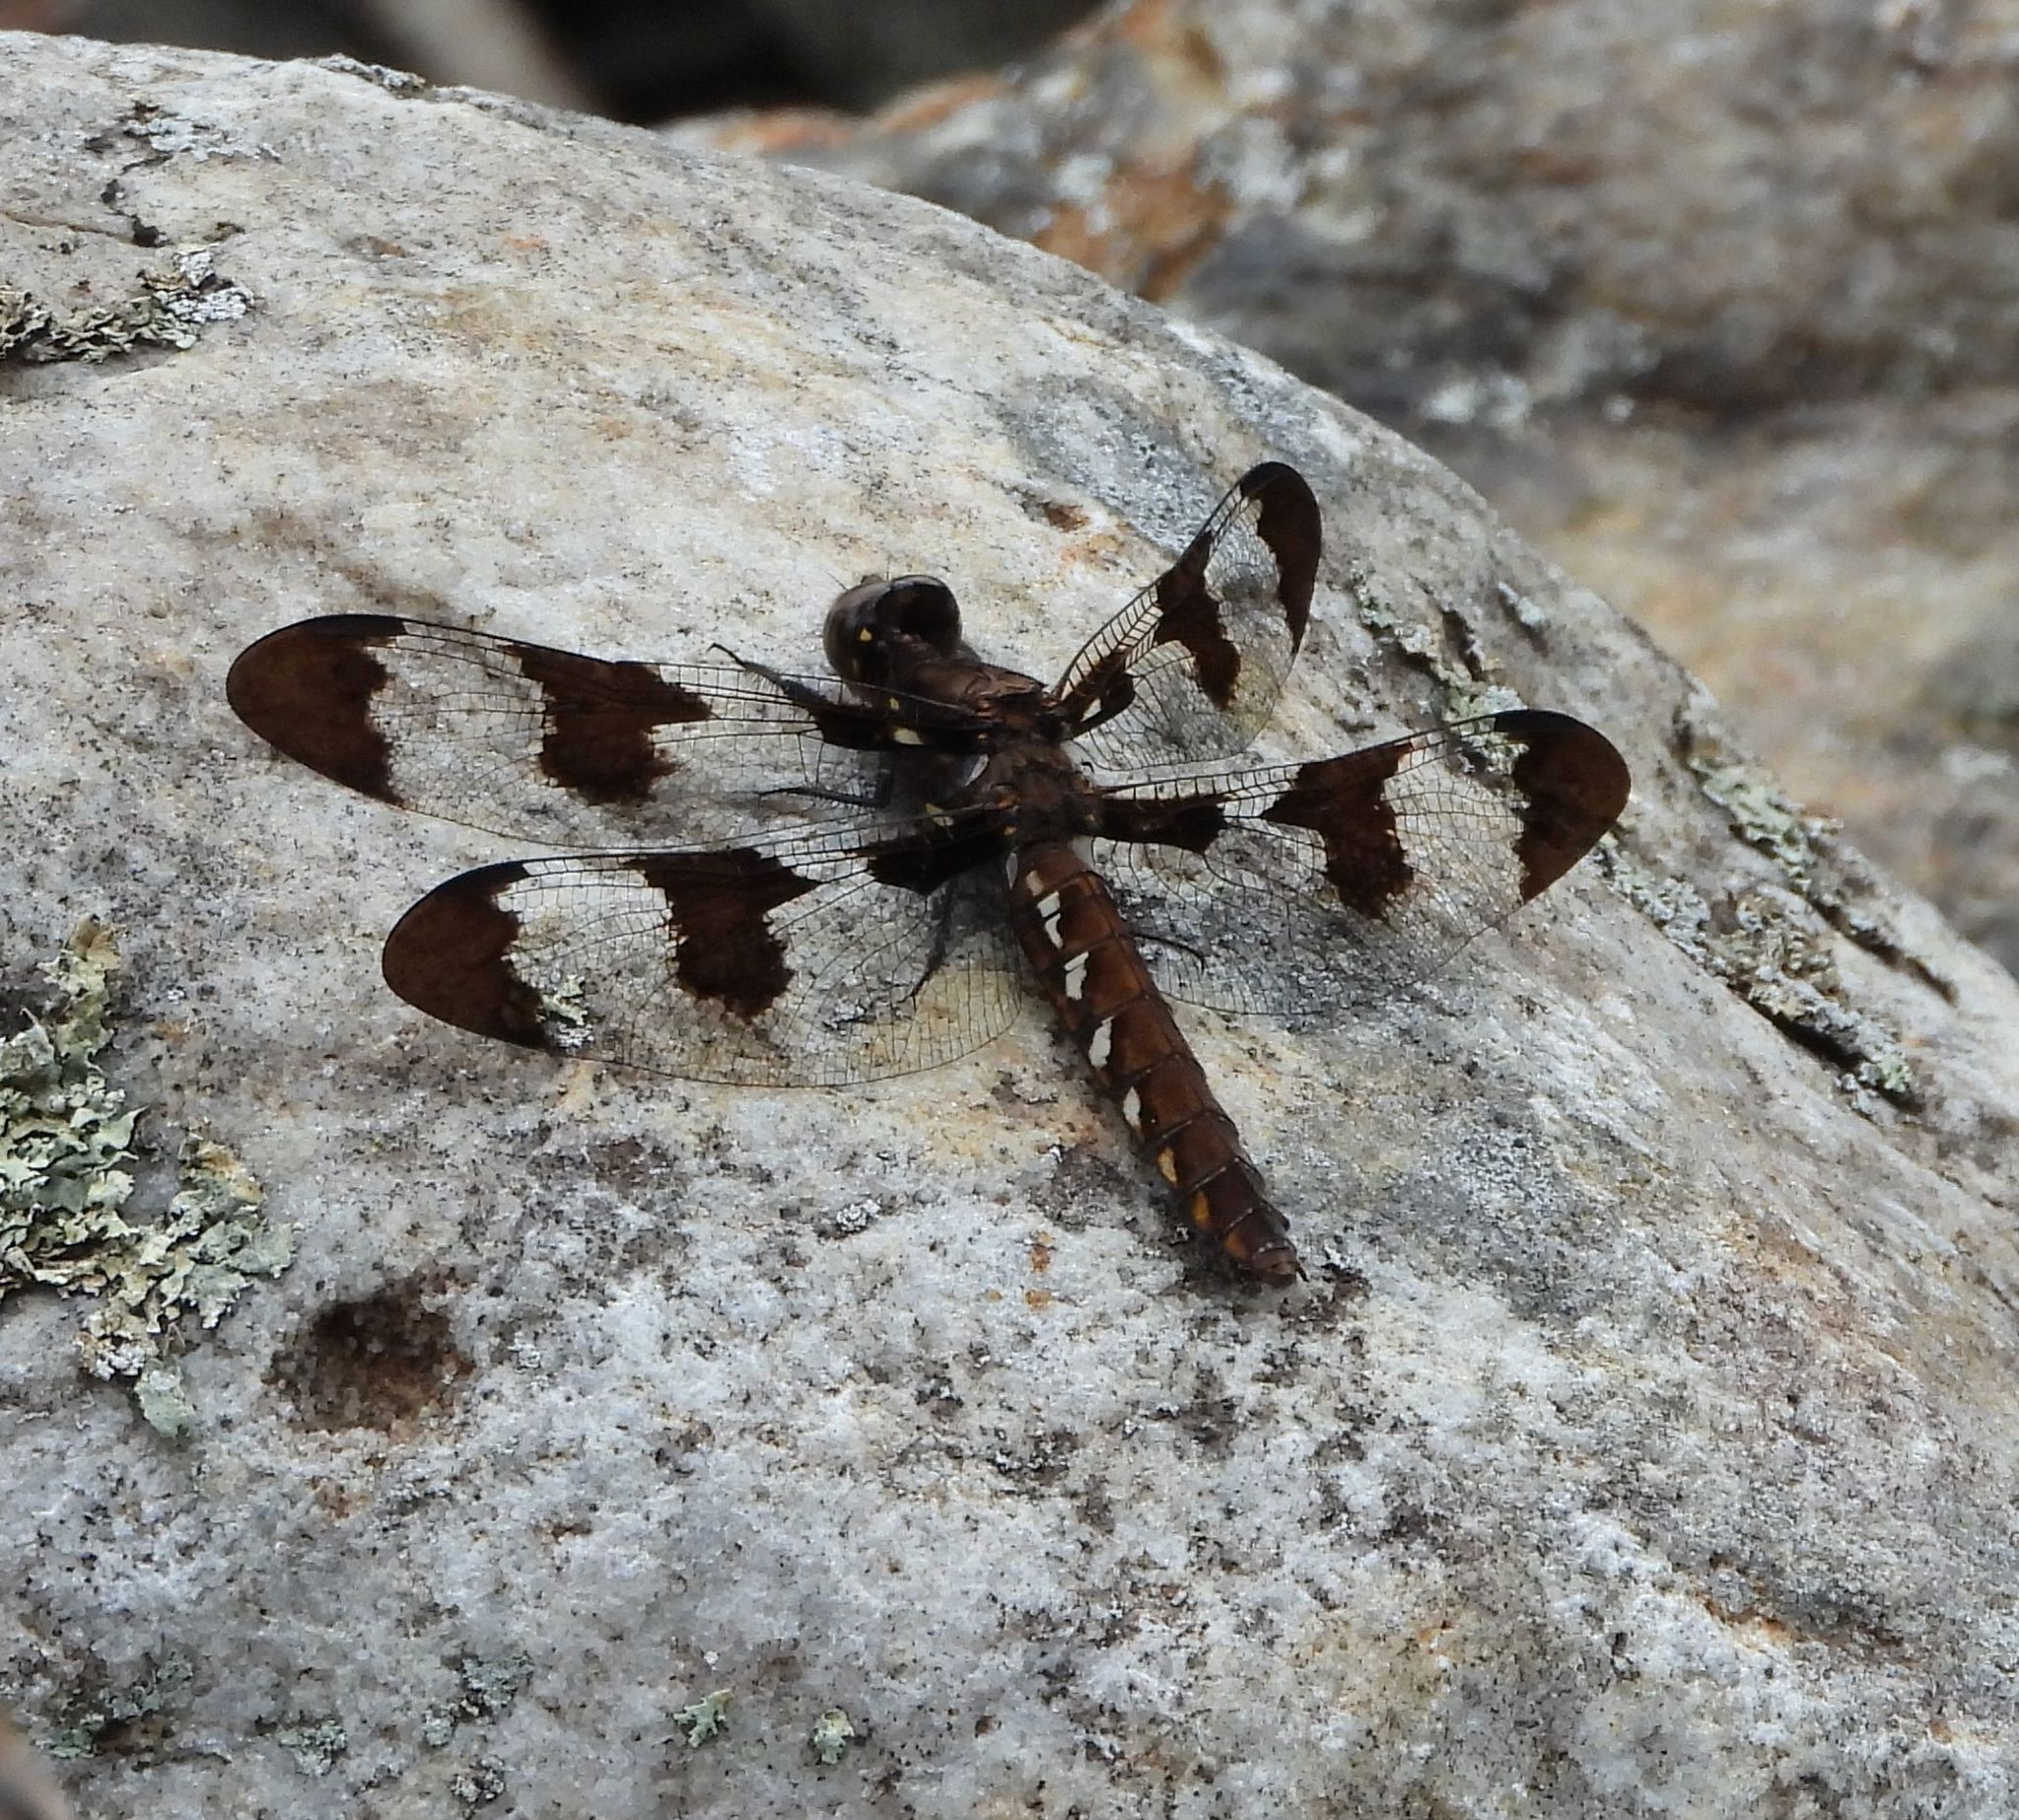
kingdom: Animalia
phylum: Arthropoda
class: Insecta
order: Odonata
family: Libellulidae
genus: Plathemis
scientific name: Plathemis lydia
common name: Common whitetail
